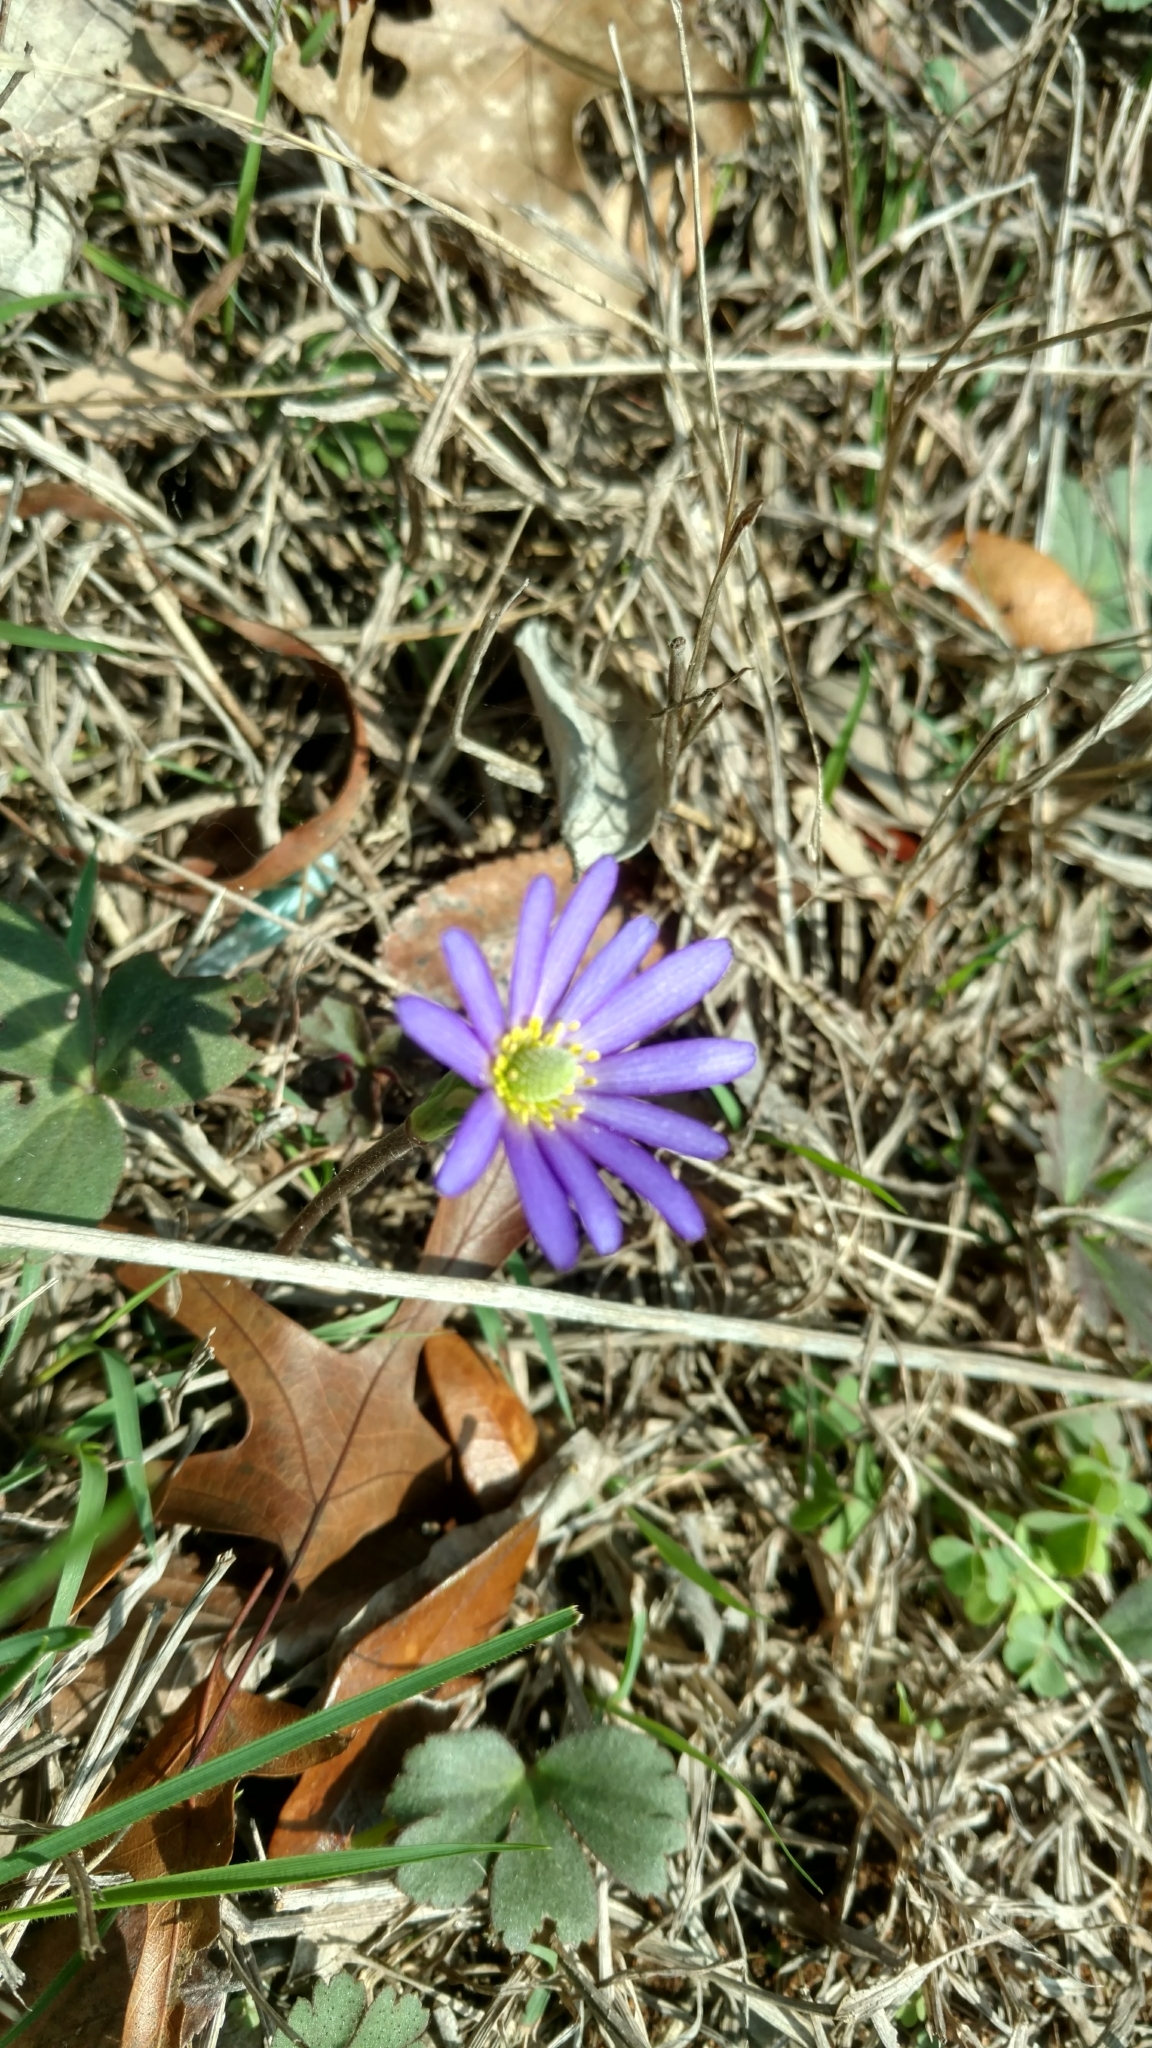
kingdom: Plantae
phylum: Tracheophyta
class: Magnoliopsida
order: Ranunculales
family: Ranunculaceae
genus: Anemone
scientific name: Anemone berlandieri
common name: Ten-petal anemone
